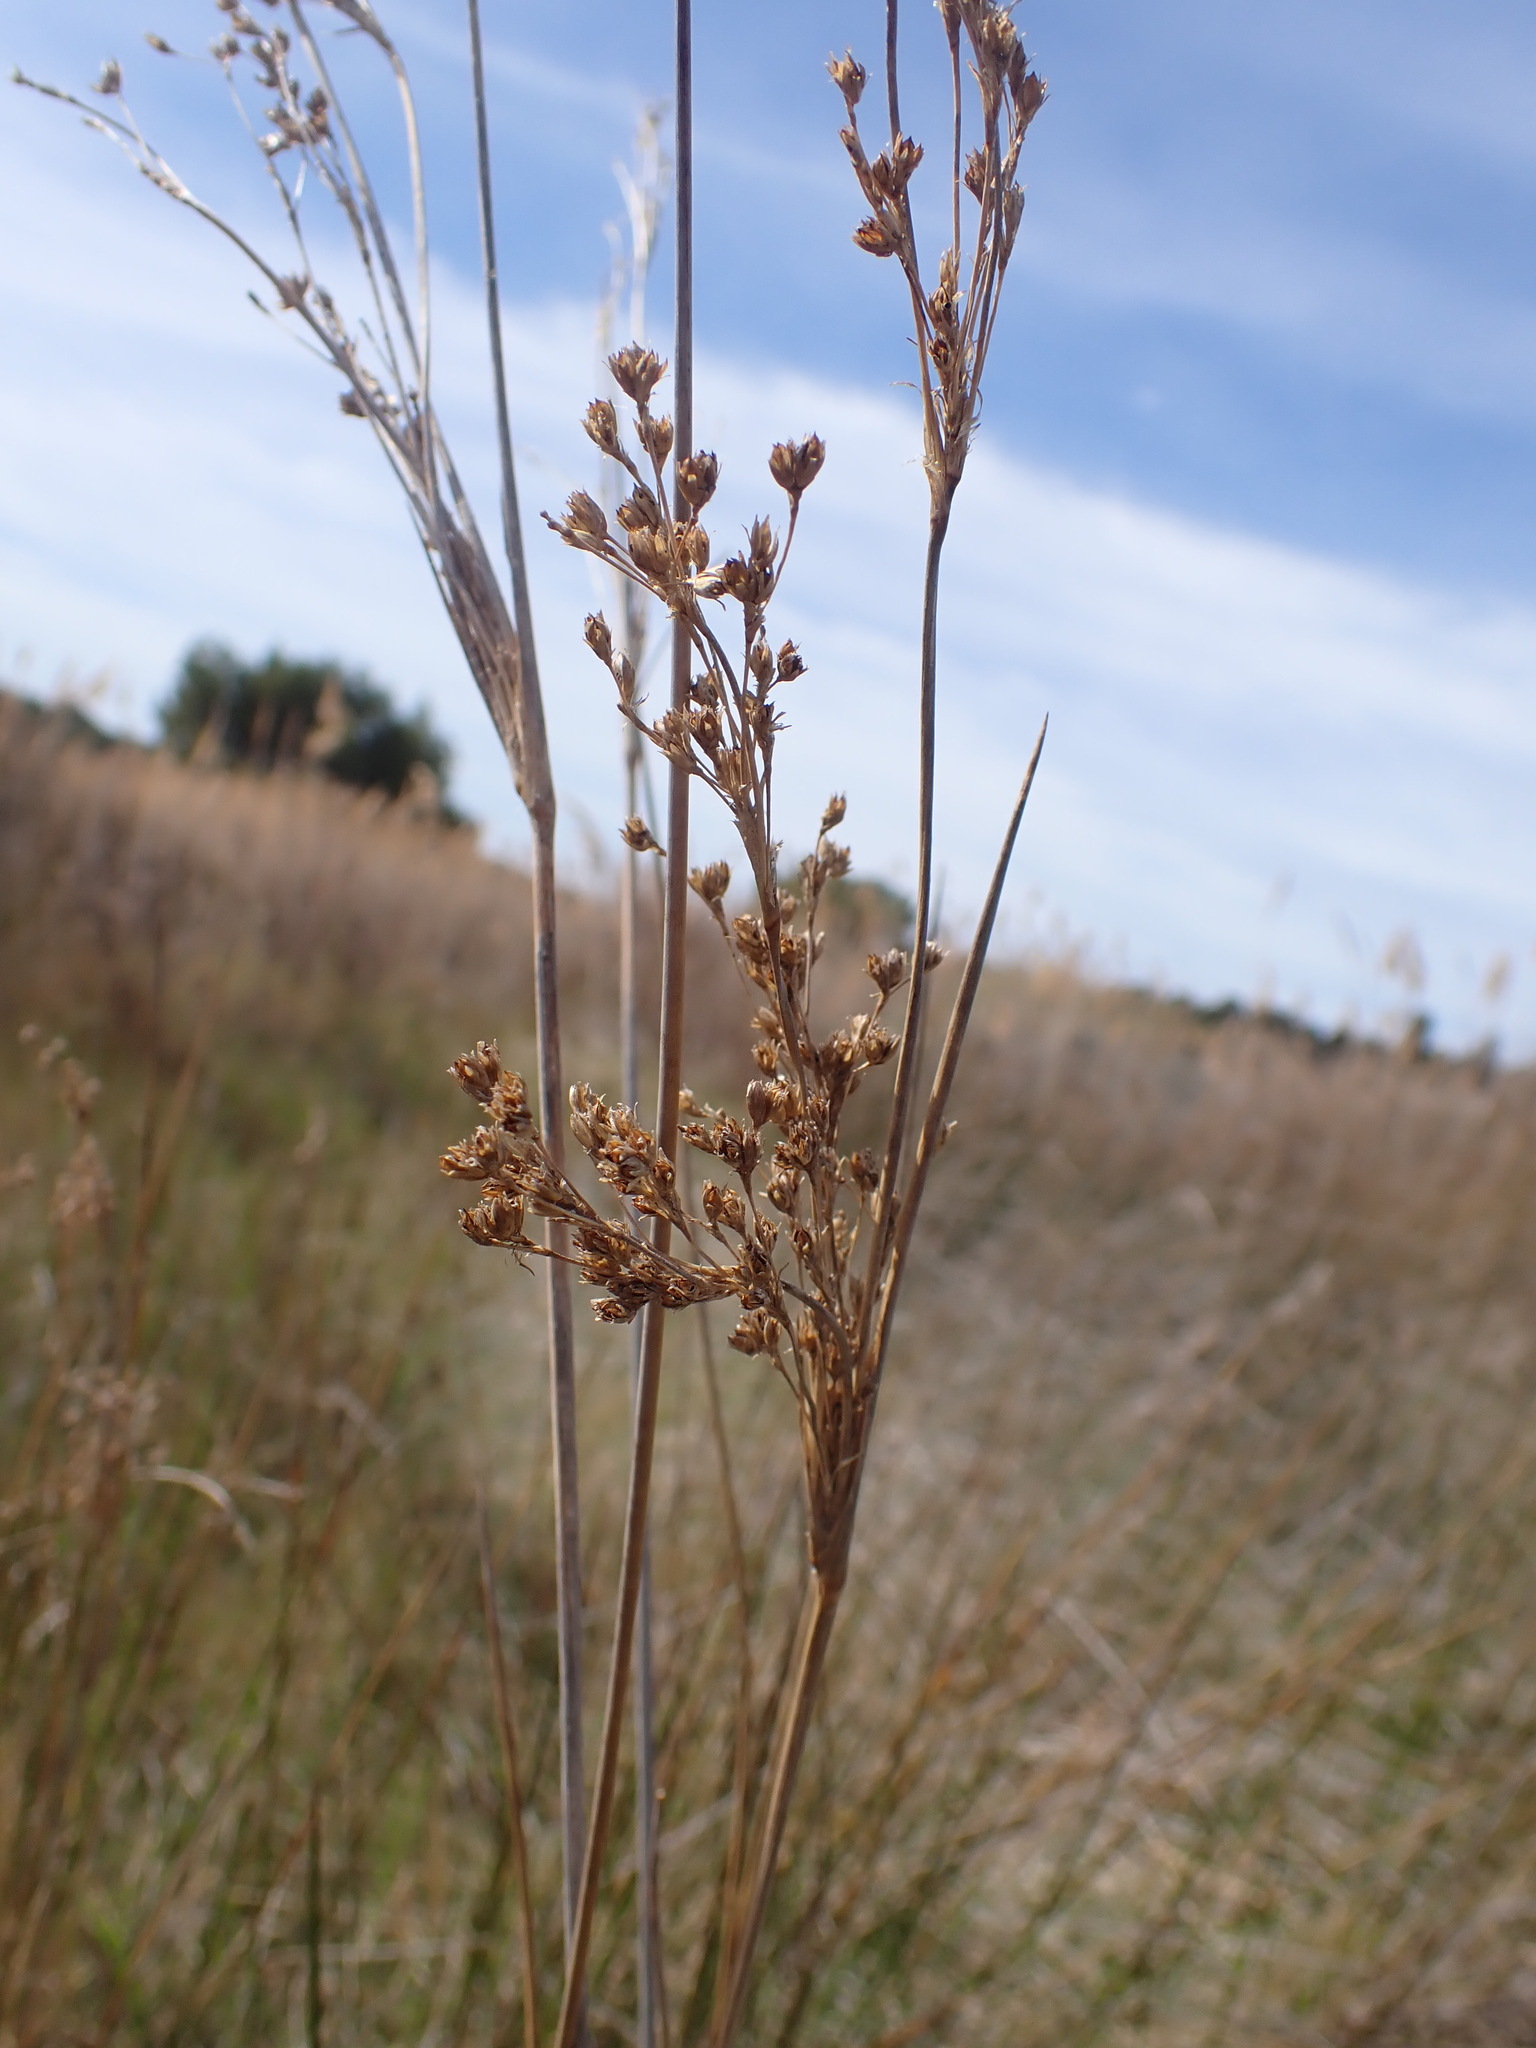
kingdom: Plantae
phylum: Tracheophyta
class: Liliopsida
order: Poales
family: Juncaceae
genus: Juncus
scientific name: Juncus maritimus
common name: Sea rush
